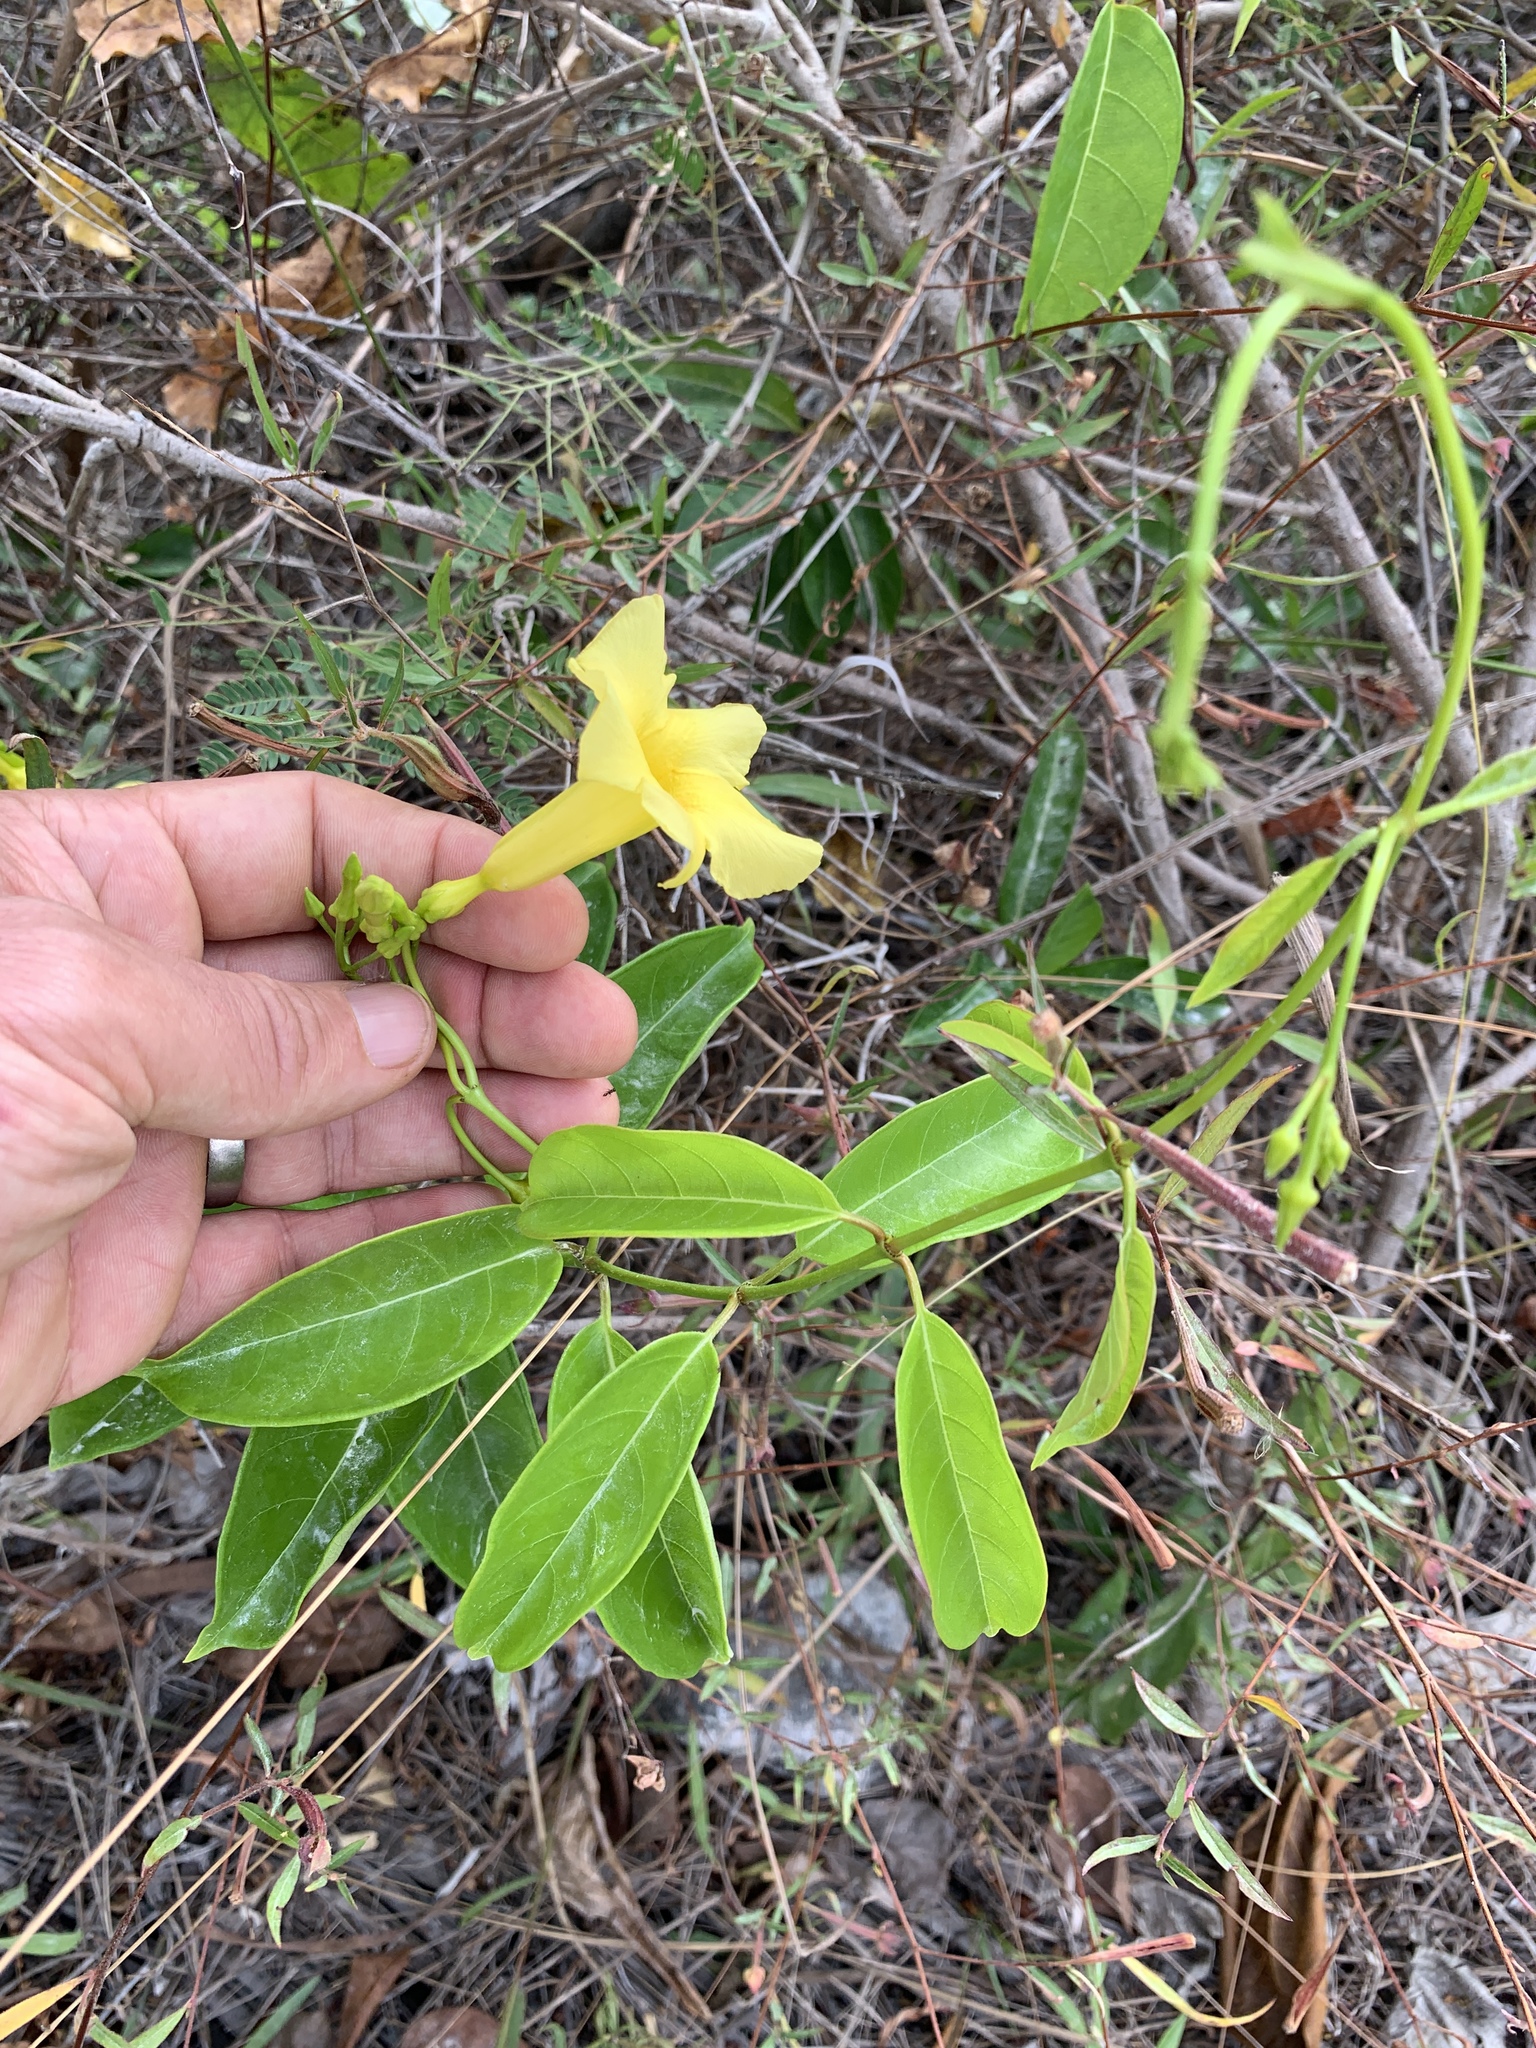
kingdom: Plantae
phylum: Tracheophyta
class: Magnoliopsida
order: Gentianales
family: Apocynaceae
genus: Pentalinon
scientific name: Pentalinon andrieuxii
